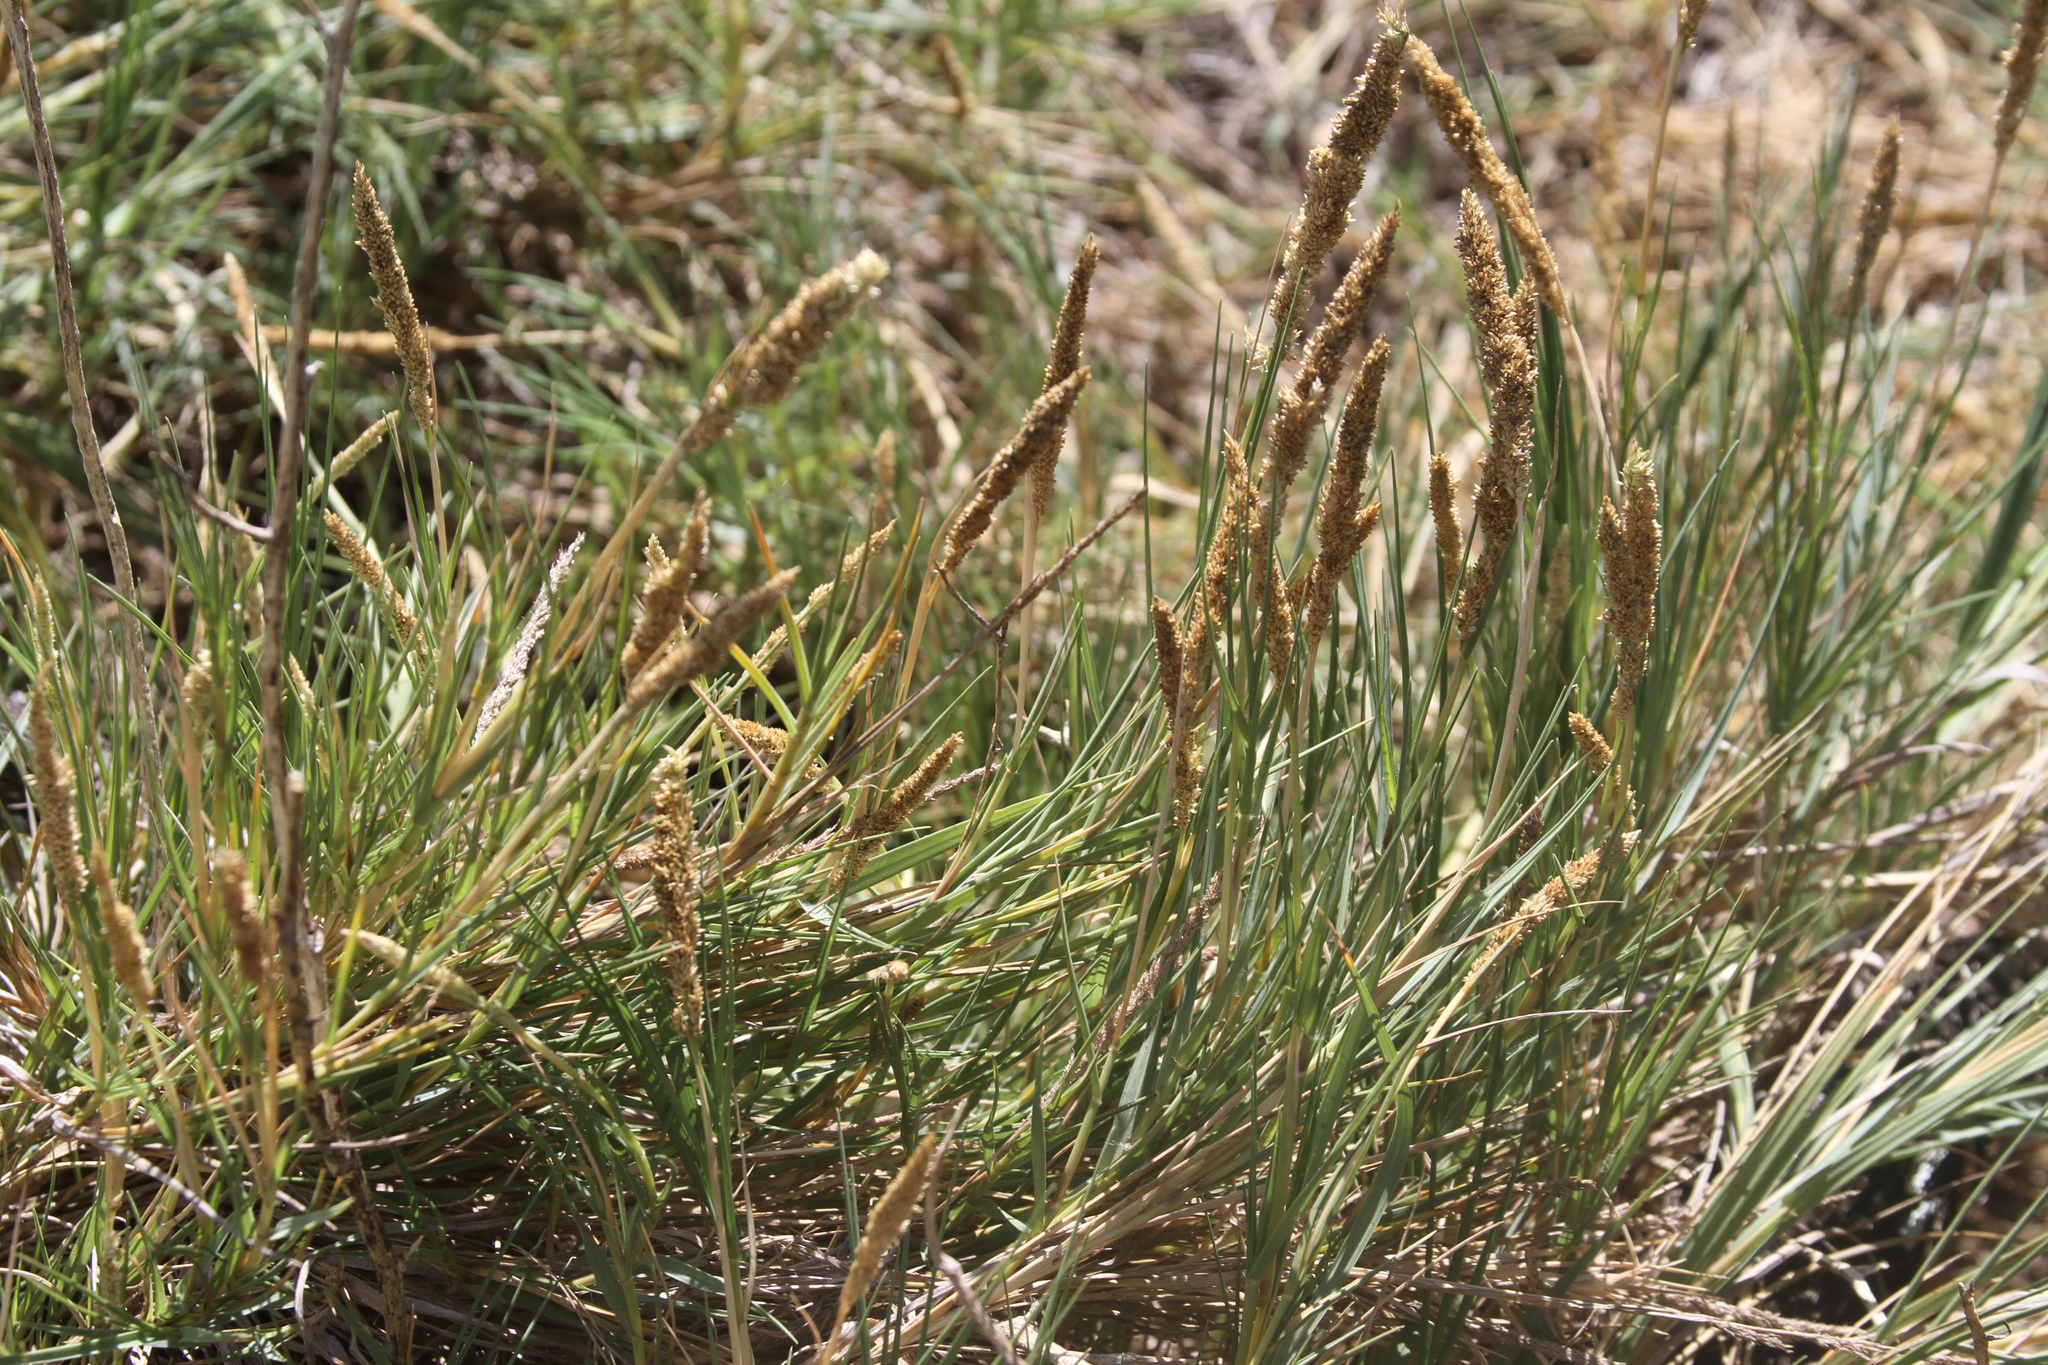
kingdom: Plantae
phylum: Tracheophyta
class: Liliopsida
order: Poales
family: Poaceae
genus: Sporobolus
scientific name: Sporobolus virginicus
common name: Beach dropseed
